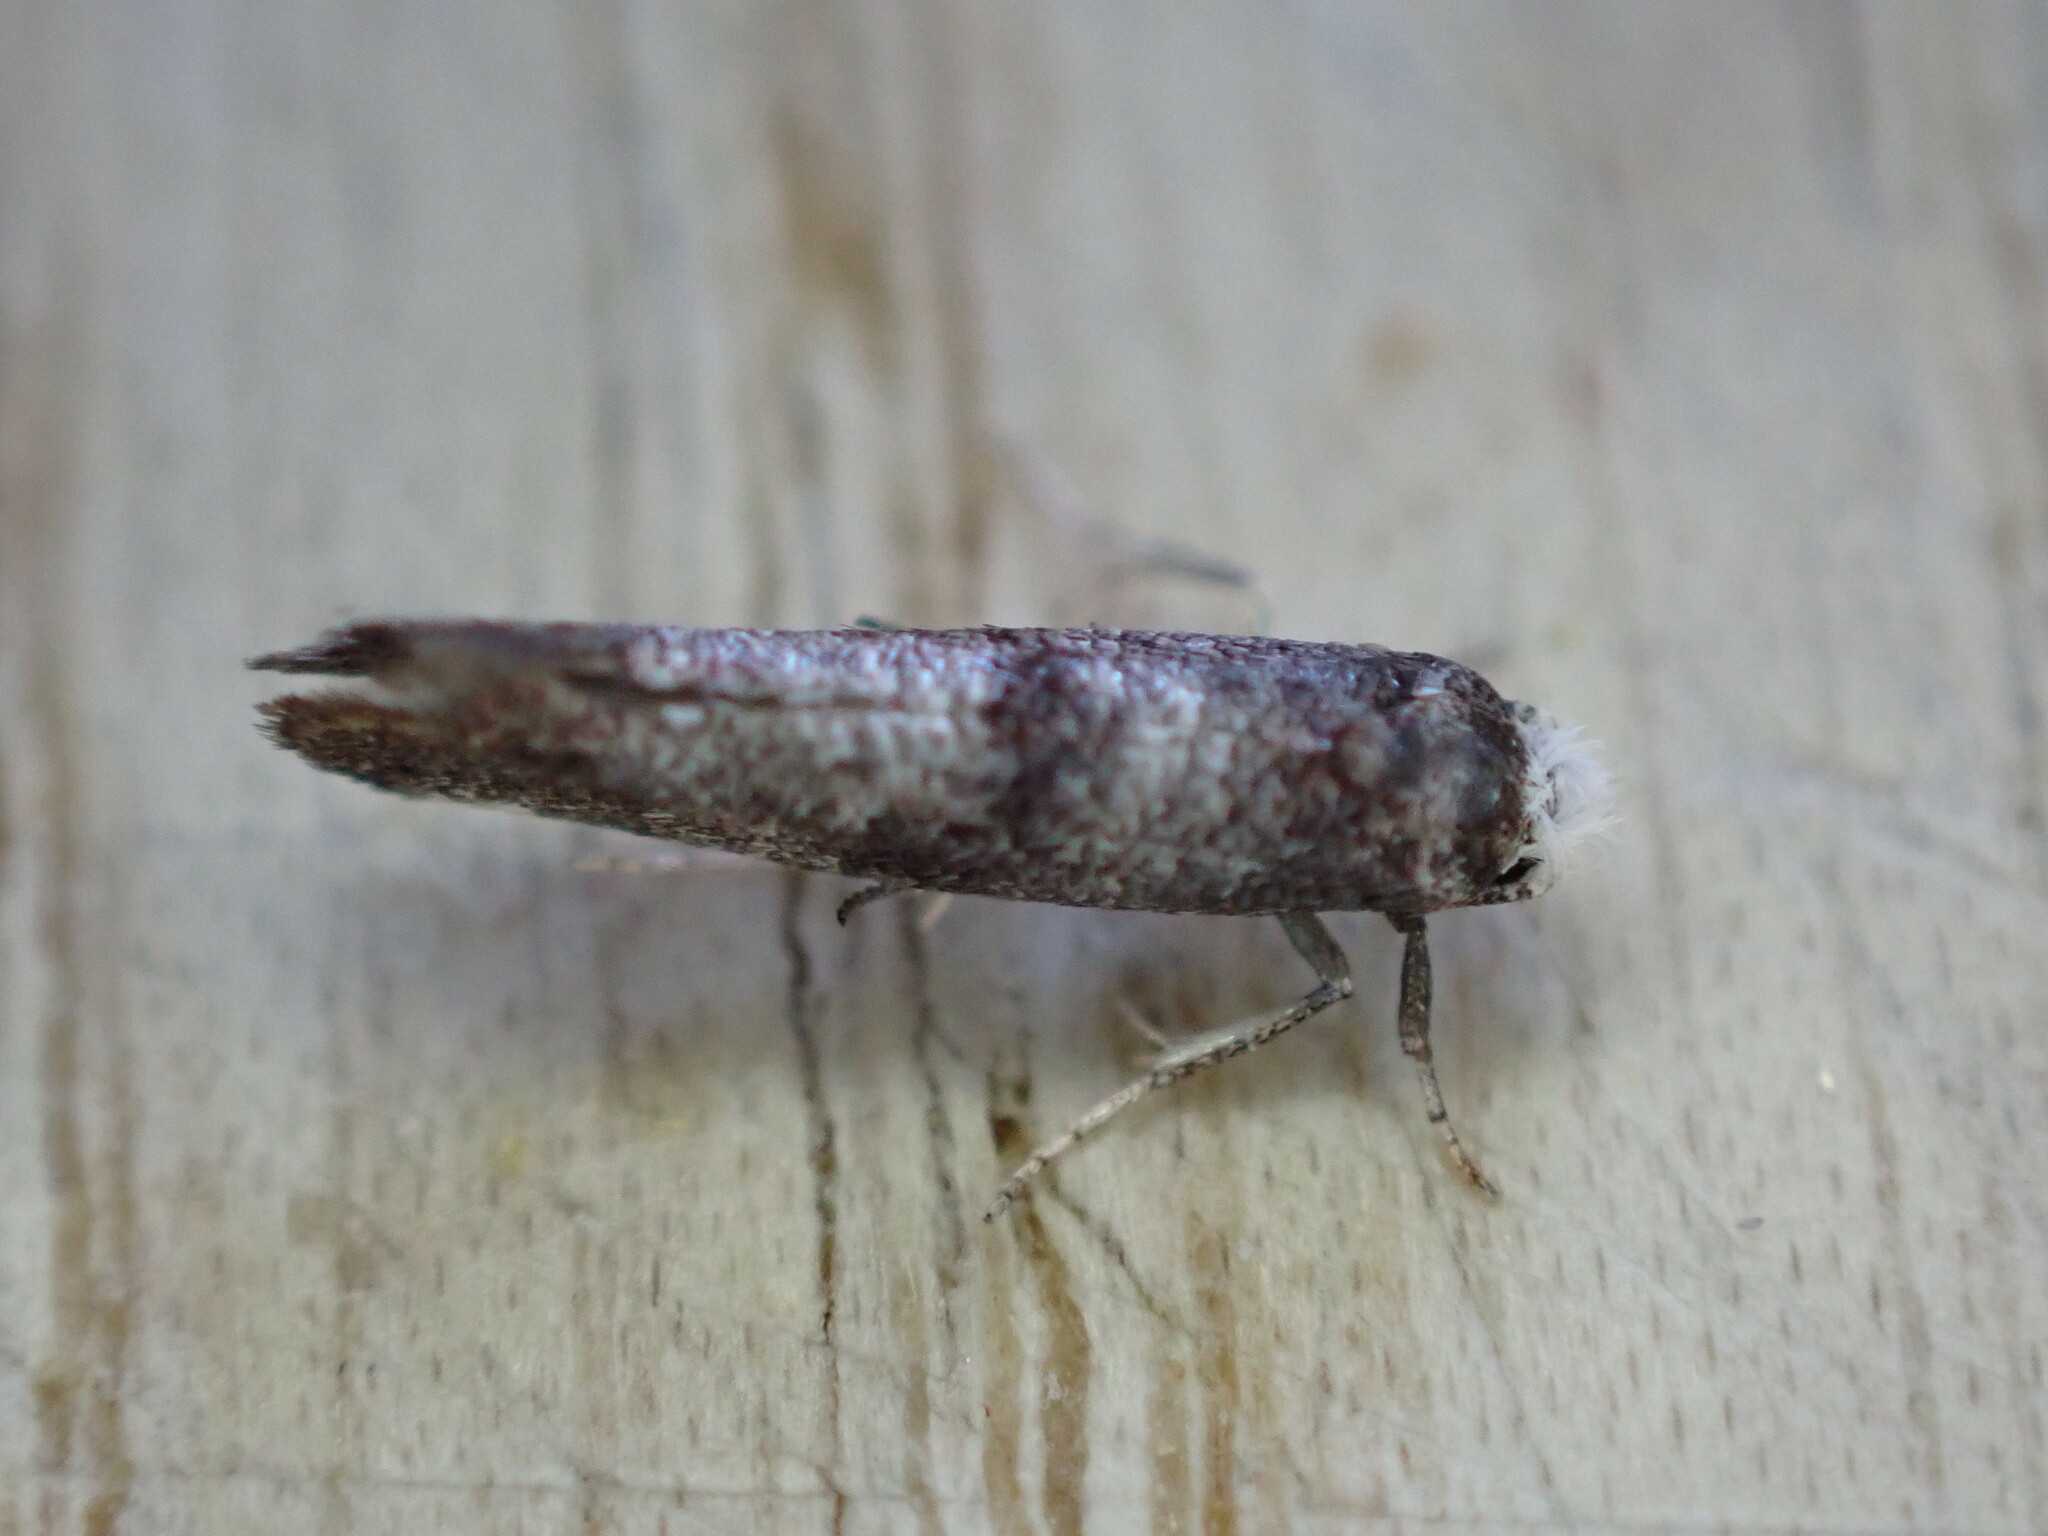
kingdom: Animalia
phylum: Arthropoda
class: Insecta
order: Lepidoptera
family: Yponomeutidae
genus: Swammerdamia
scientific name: Swammerdamia
